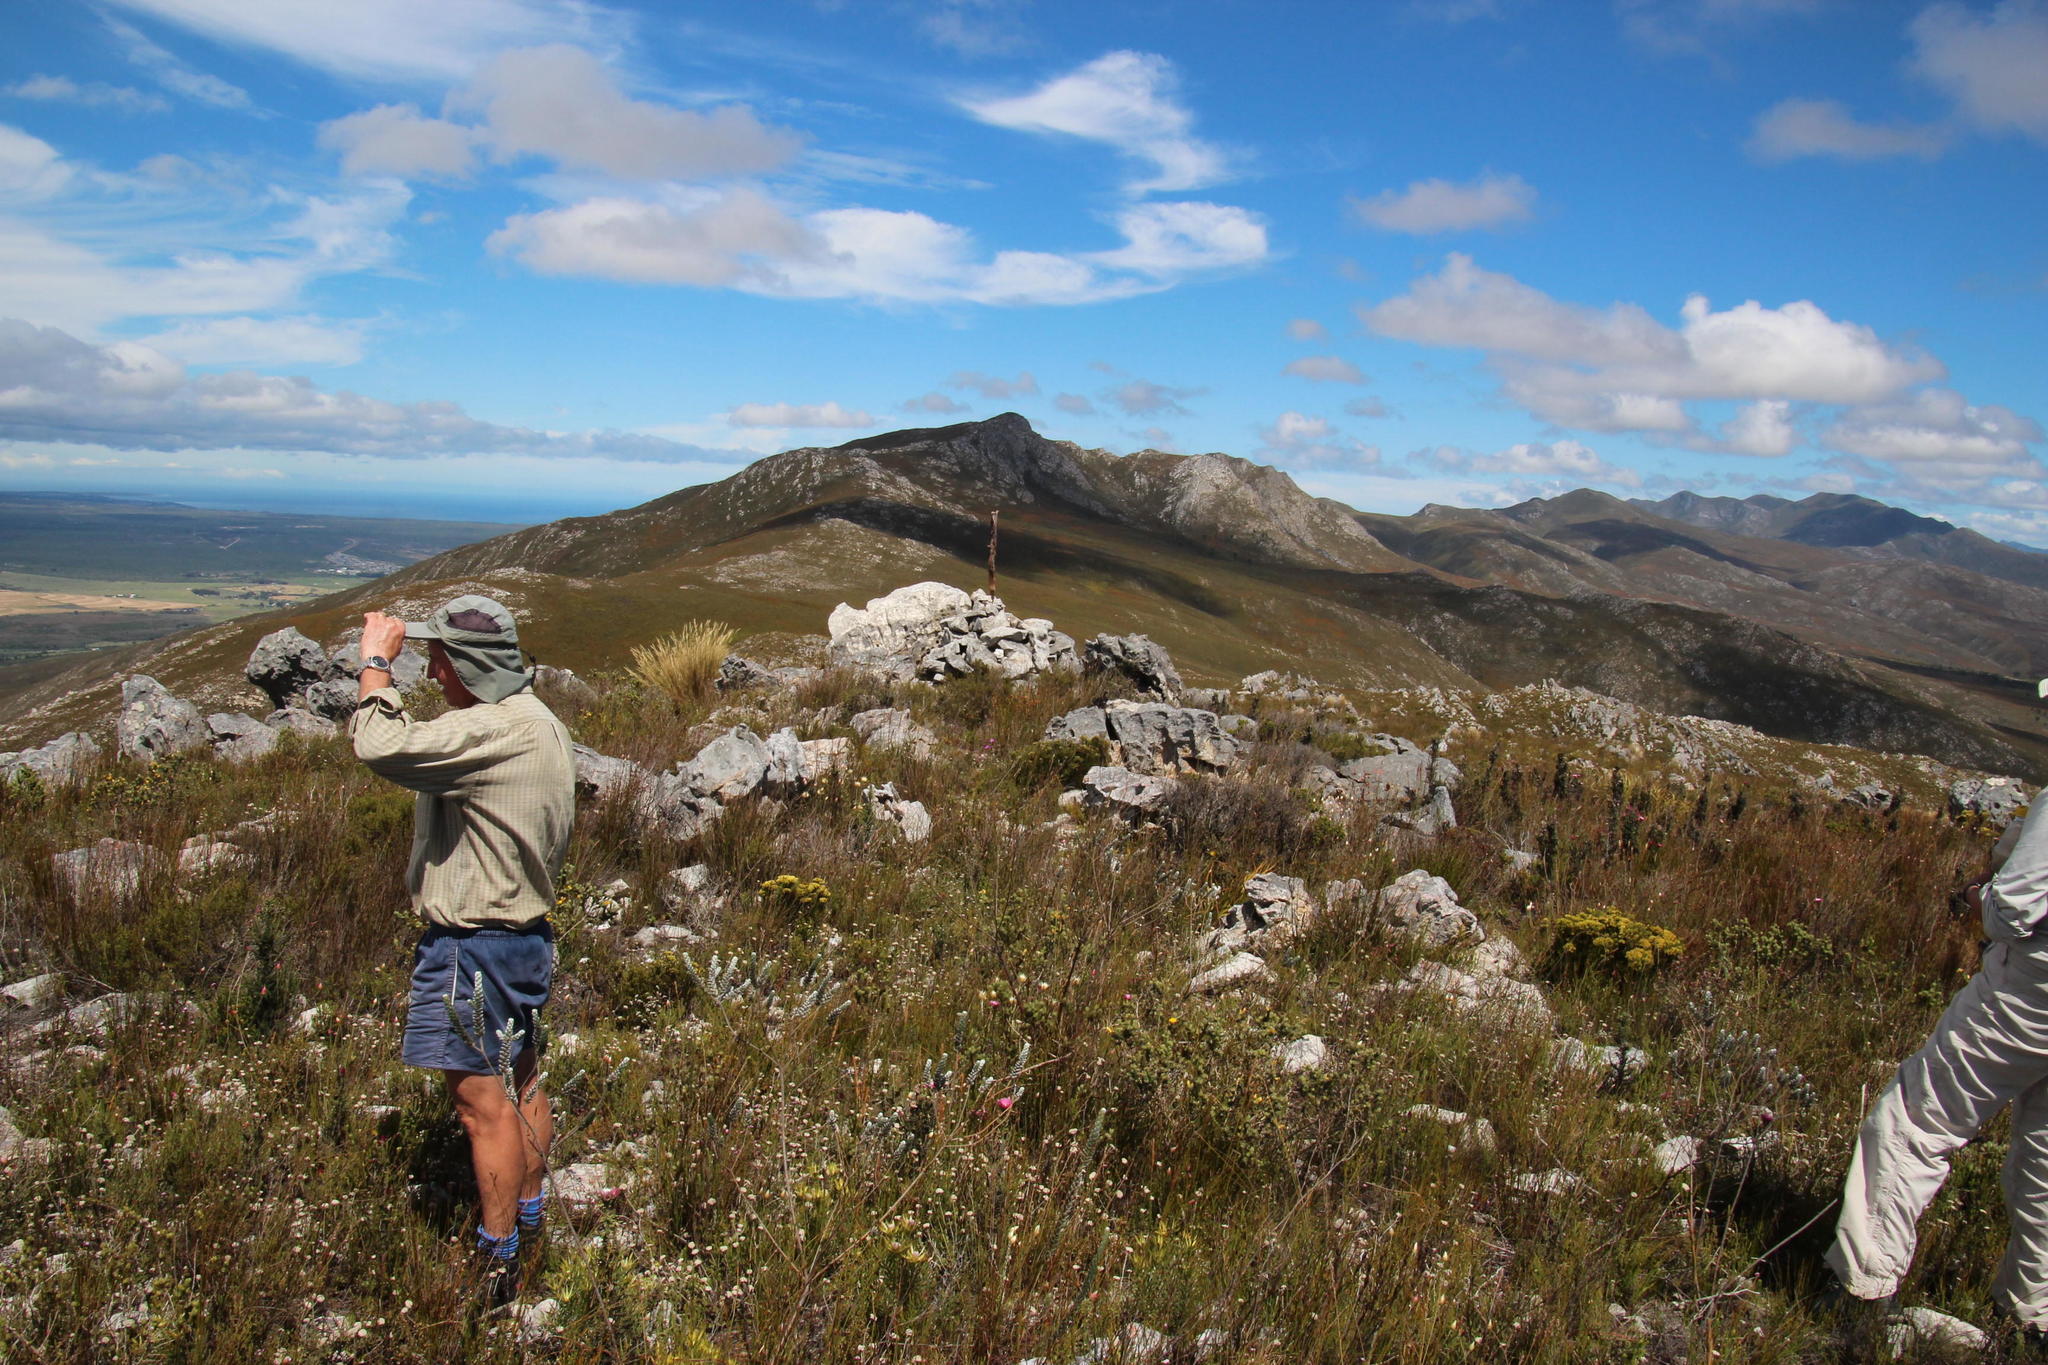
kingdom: Plantae
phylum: Tracheophyta
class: Liliopsida
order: Poales
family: Poaceae
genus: Pentameris
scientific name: Pentameris macrocalycina
